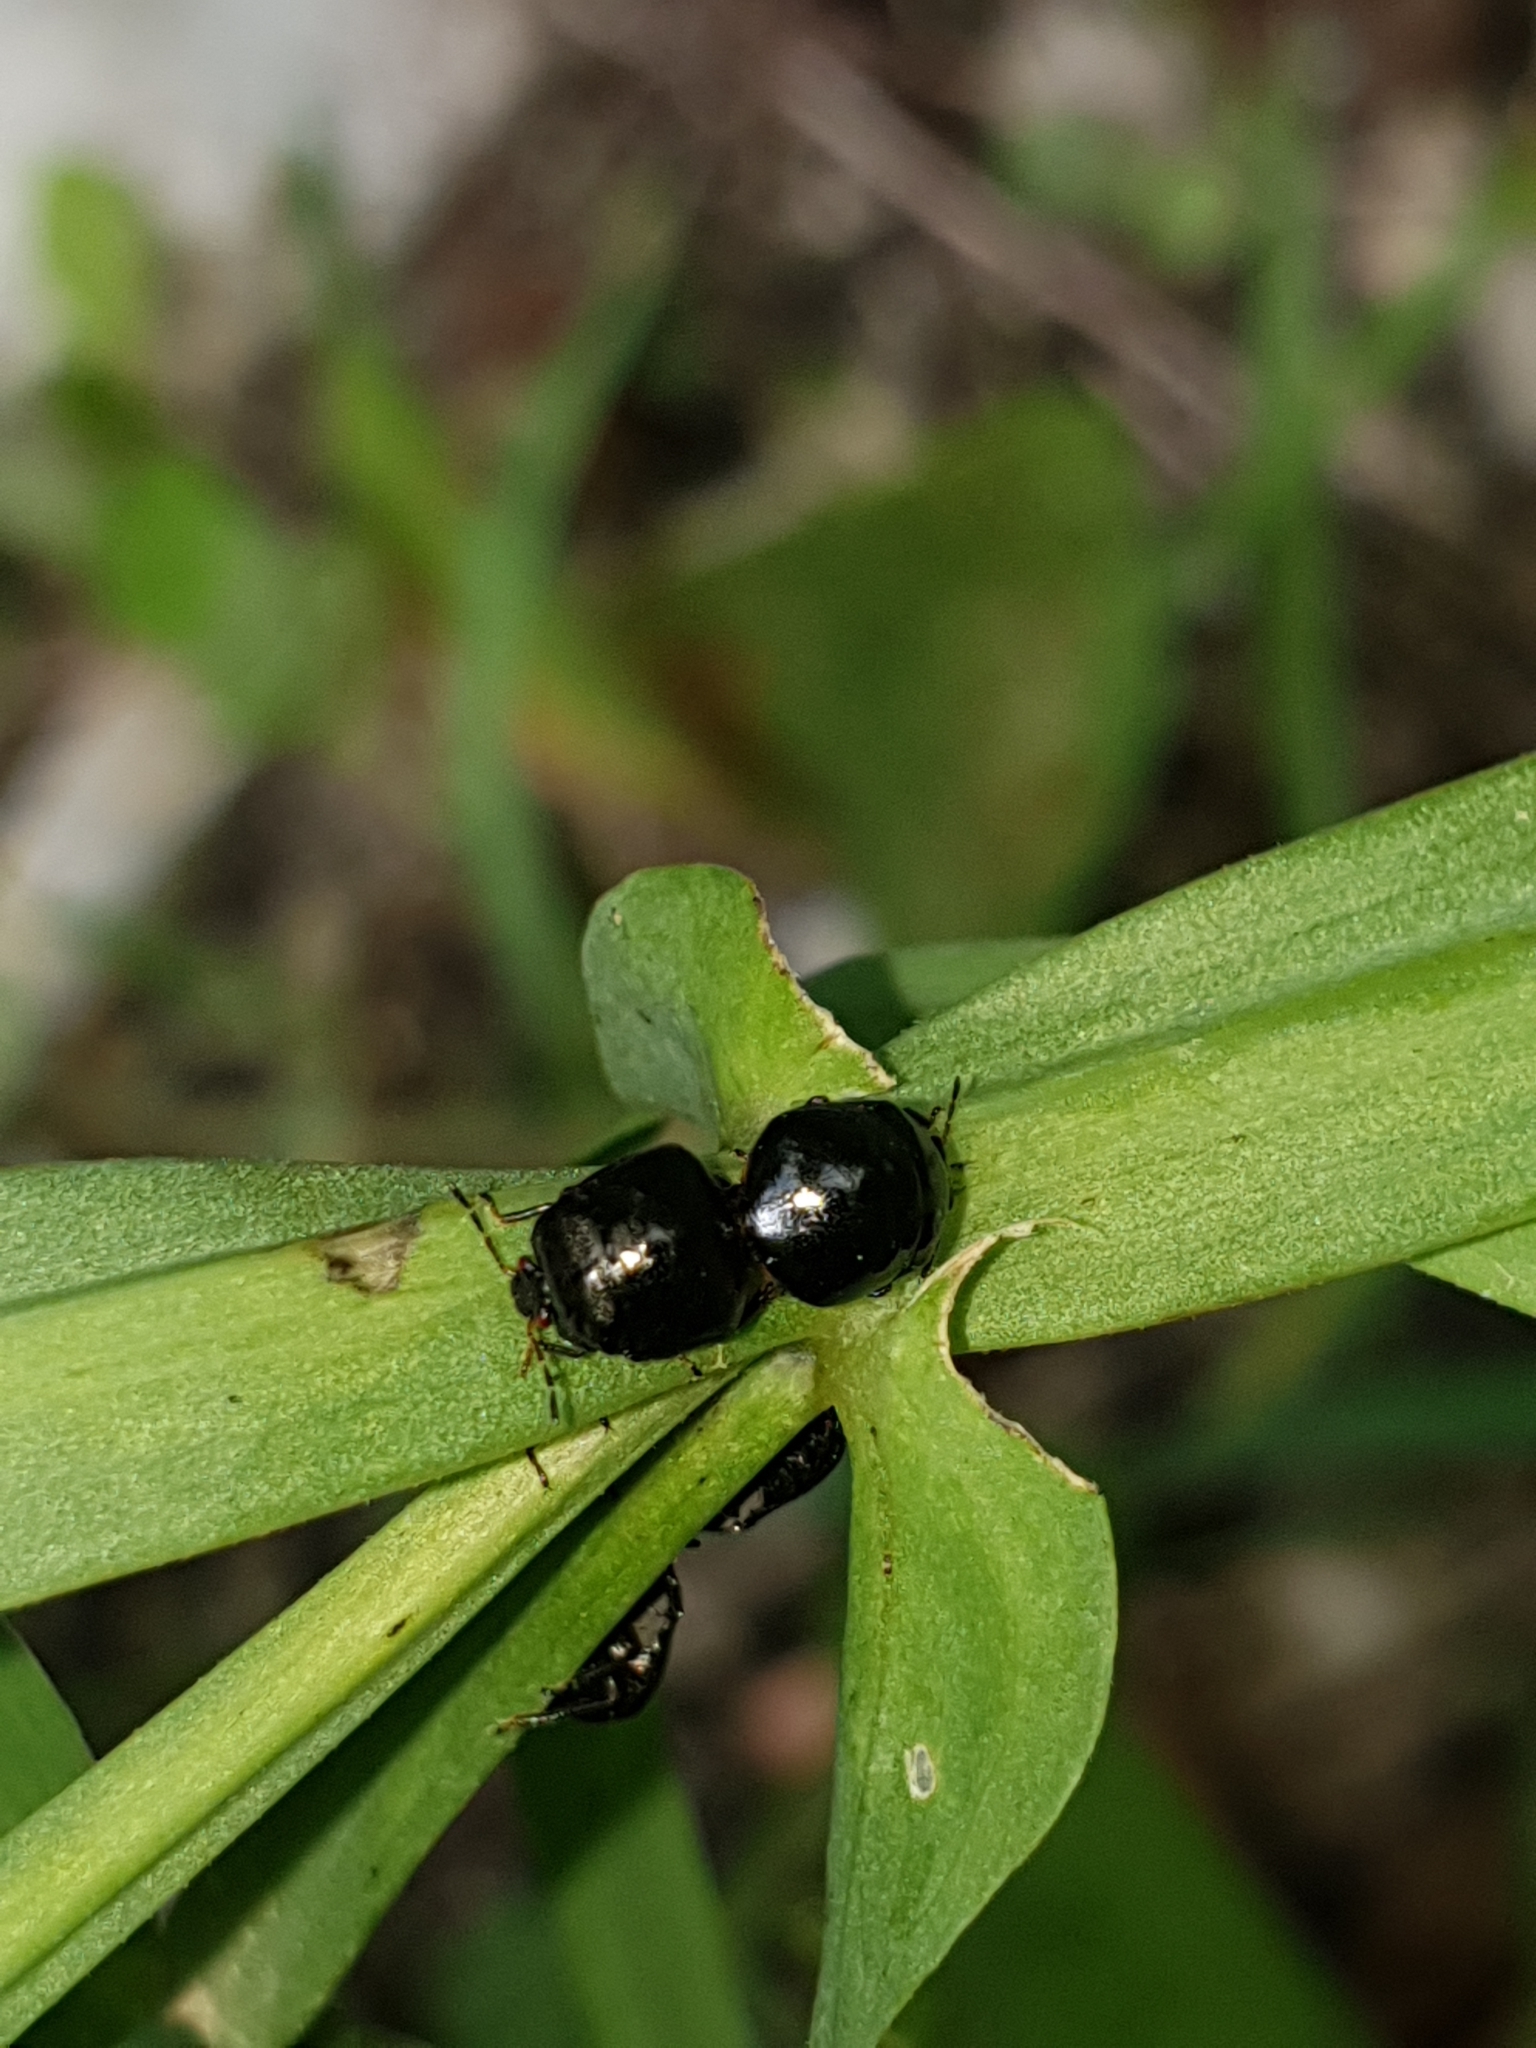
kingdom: Animalia
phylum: Arthropoda
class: Insecta
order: Hemiptera
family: Plataspidae
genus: Coptosoma
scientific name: Coptosoma scutellatum
